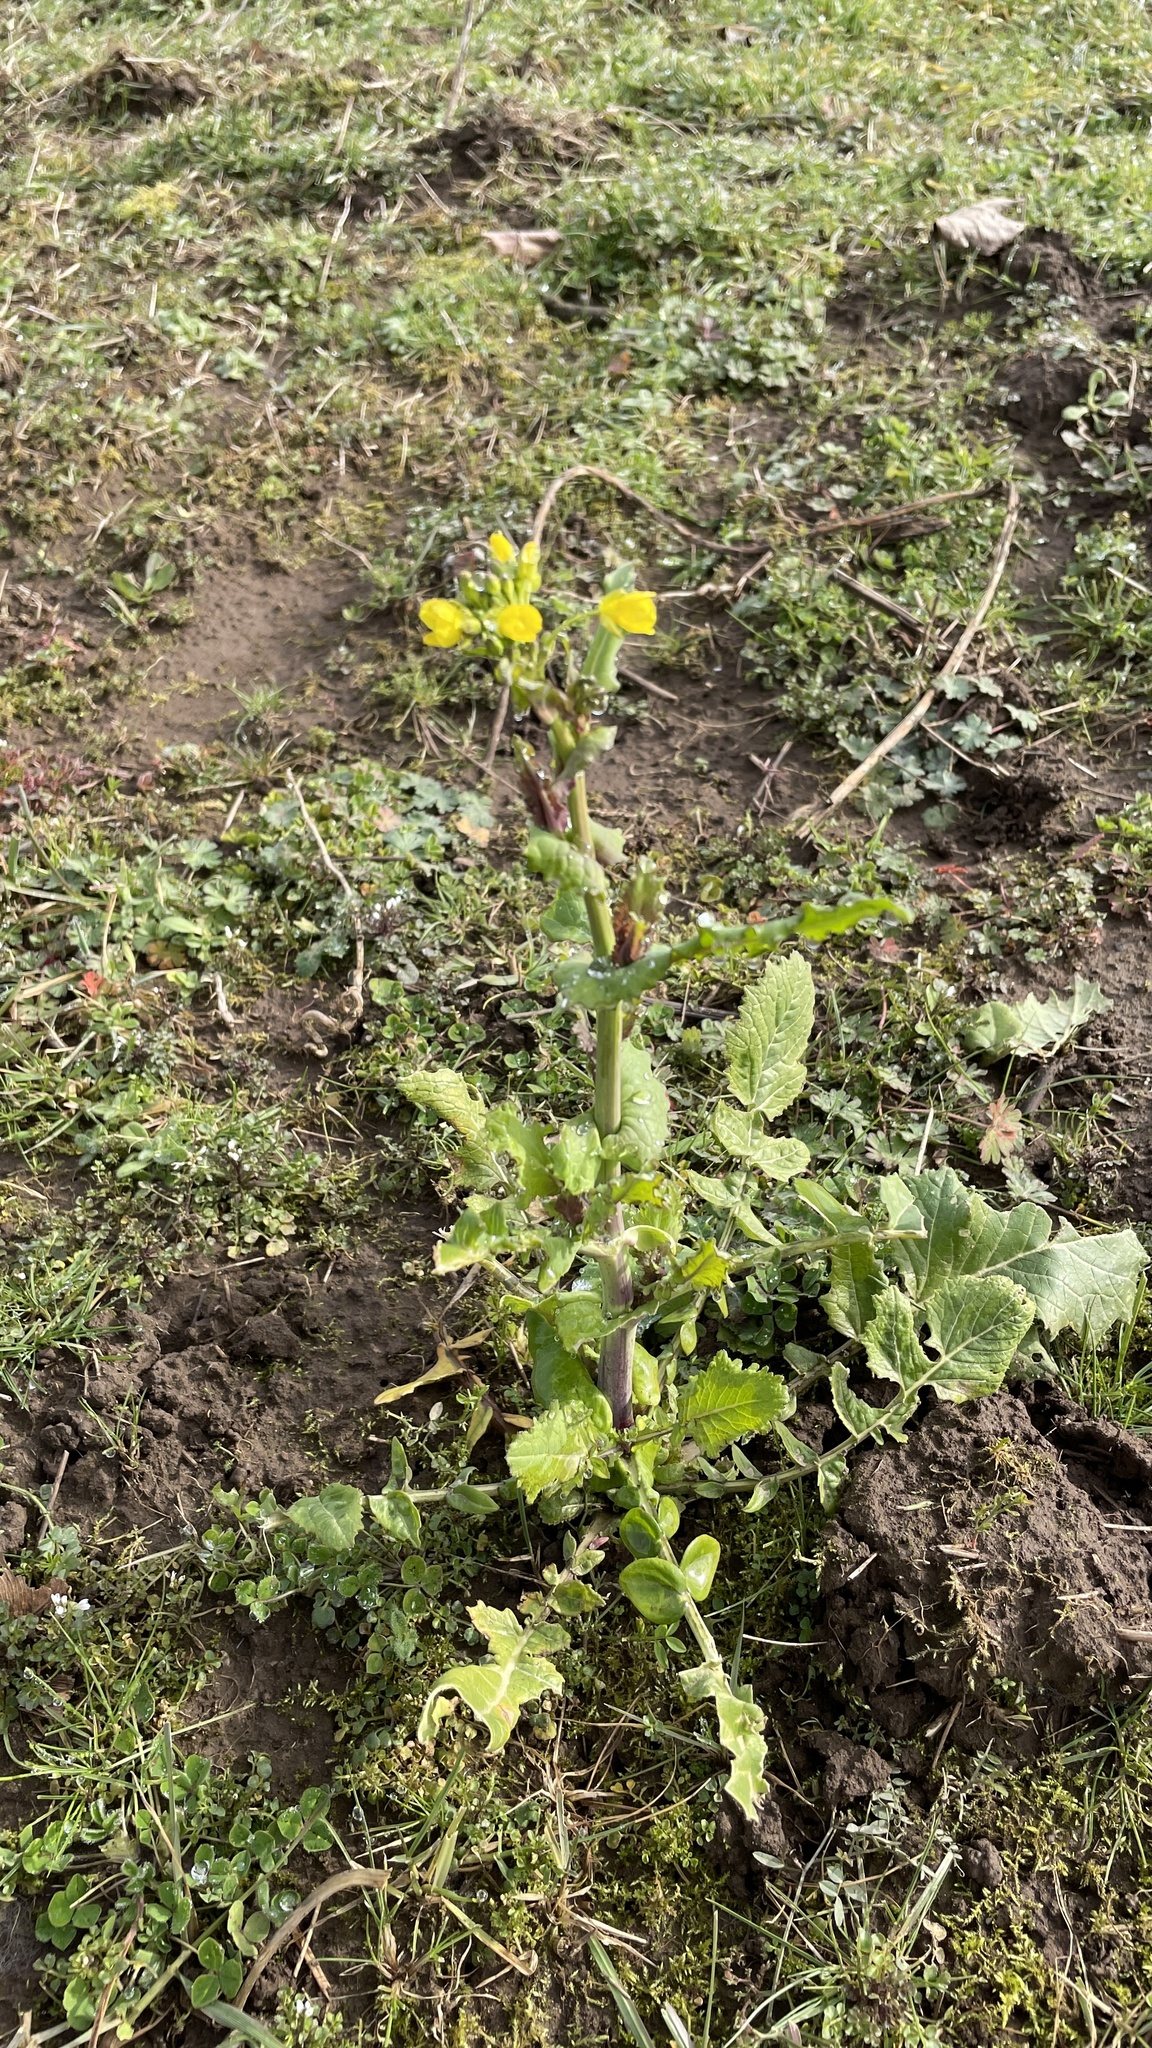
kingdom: Plantae
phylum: Tracheophyta
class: Magnoliopsida
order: Brassicales
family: Brassicaceae
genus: Brassica
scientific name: Brassica rapa
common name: Field mustard
